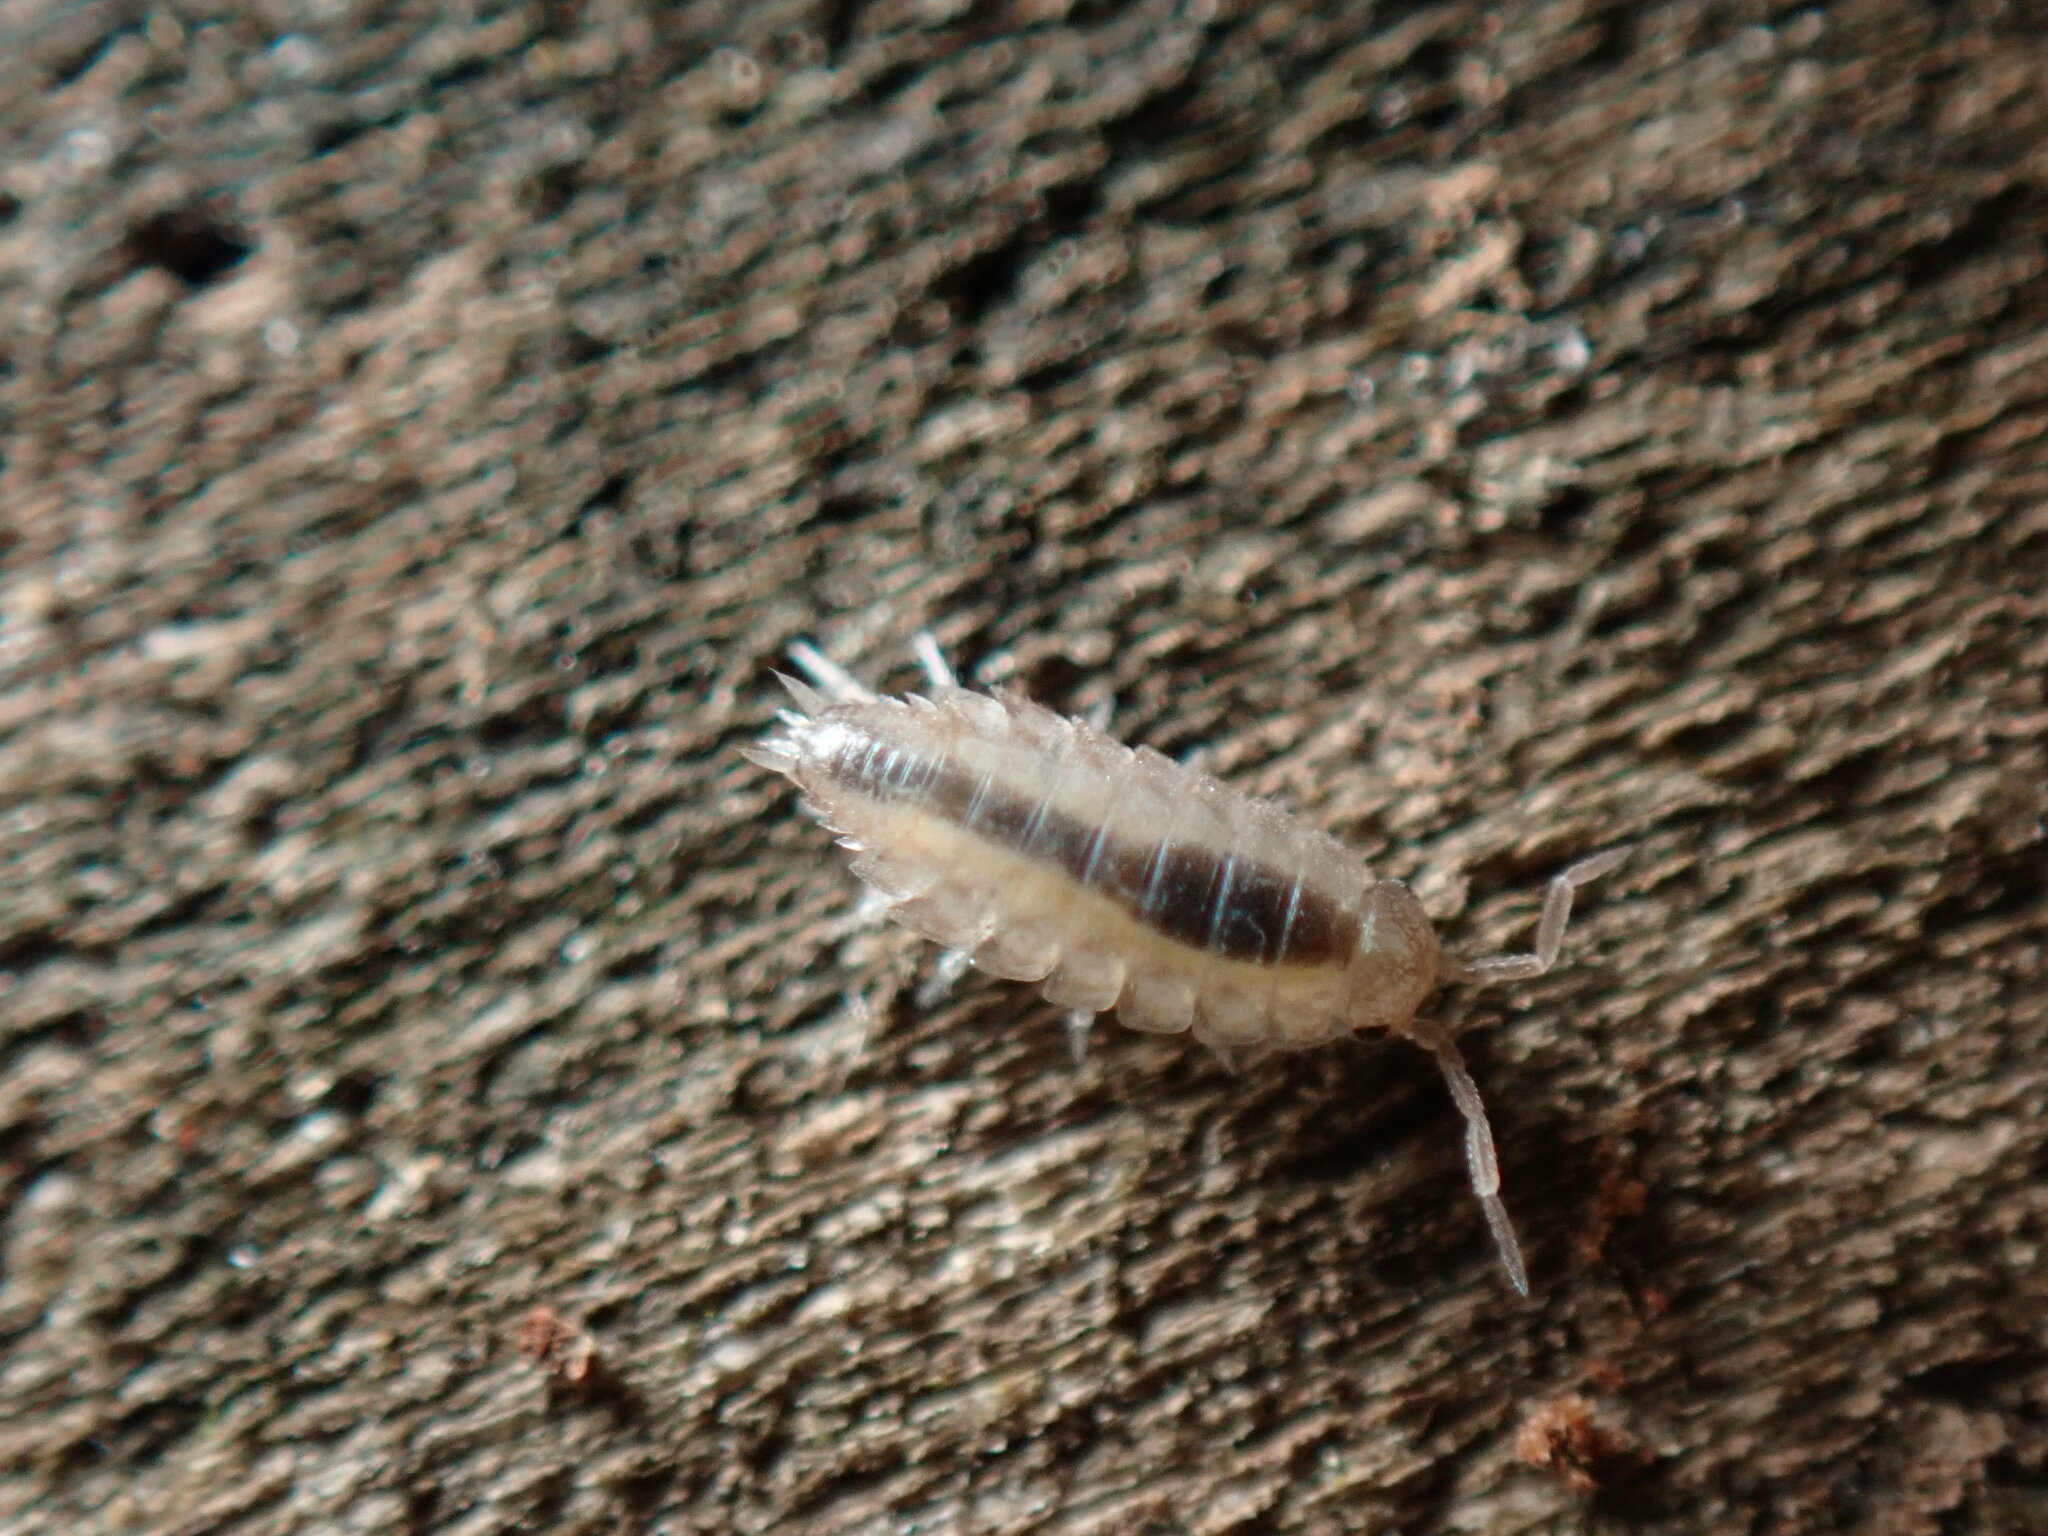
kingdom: Animalia
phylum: Arthropoda
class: Malacostraca
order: Isopoda
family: Philosciidae
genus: Philoscia
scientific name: Philoscia muscorum
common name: Common striped woodlouse
